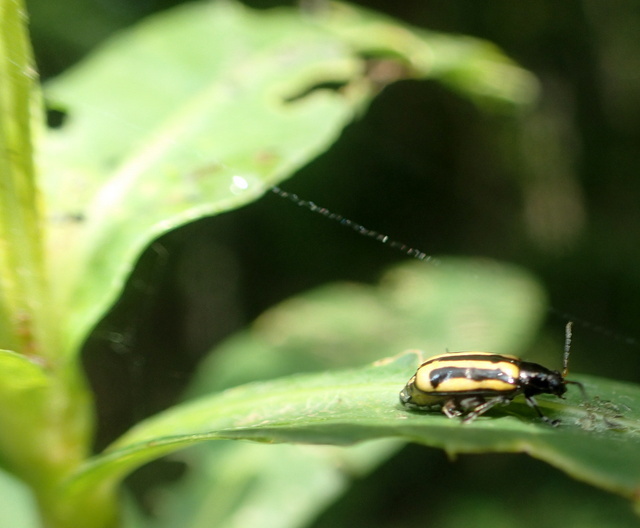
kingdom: Animalia
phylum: Arthropoda
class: Insecta
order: Coleoptera
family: Chrysomelidae
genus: Agasicles
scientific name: Agasicles hygrophila
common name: Alligatorweed flea beetle
